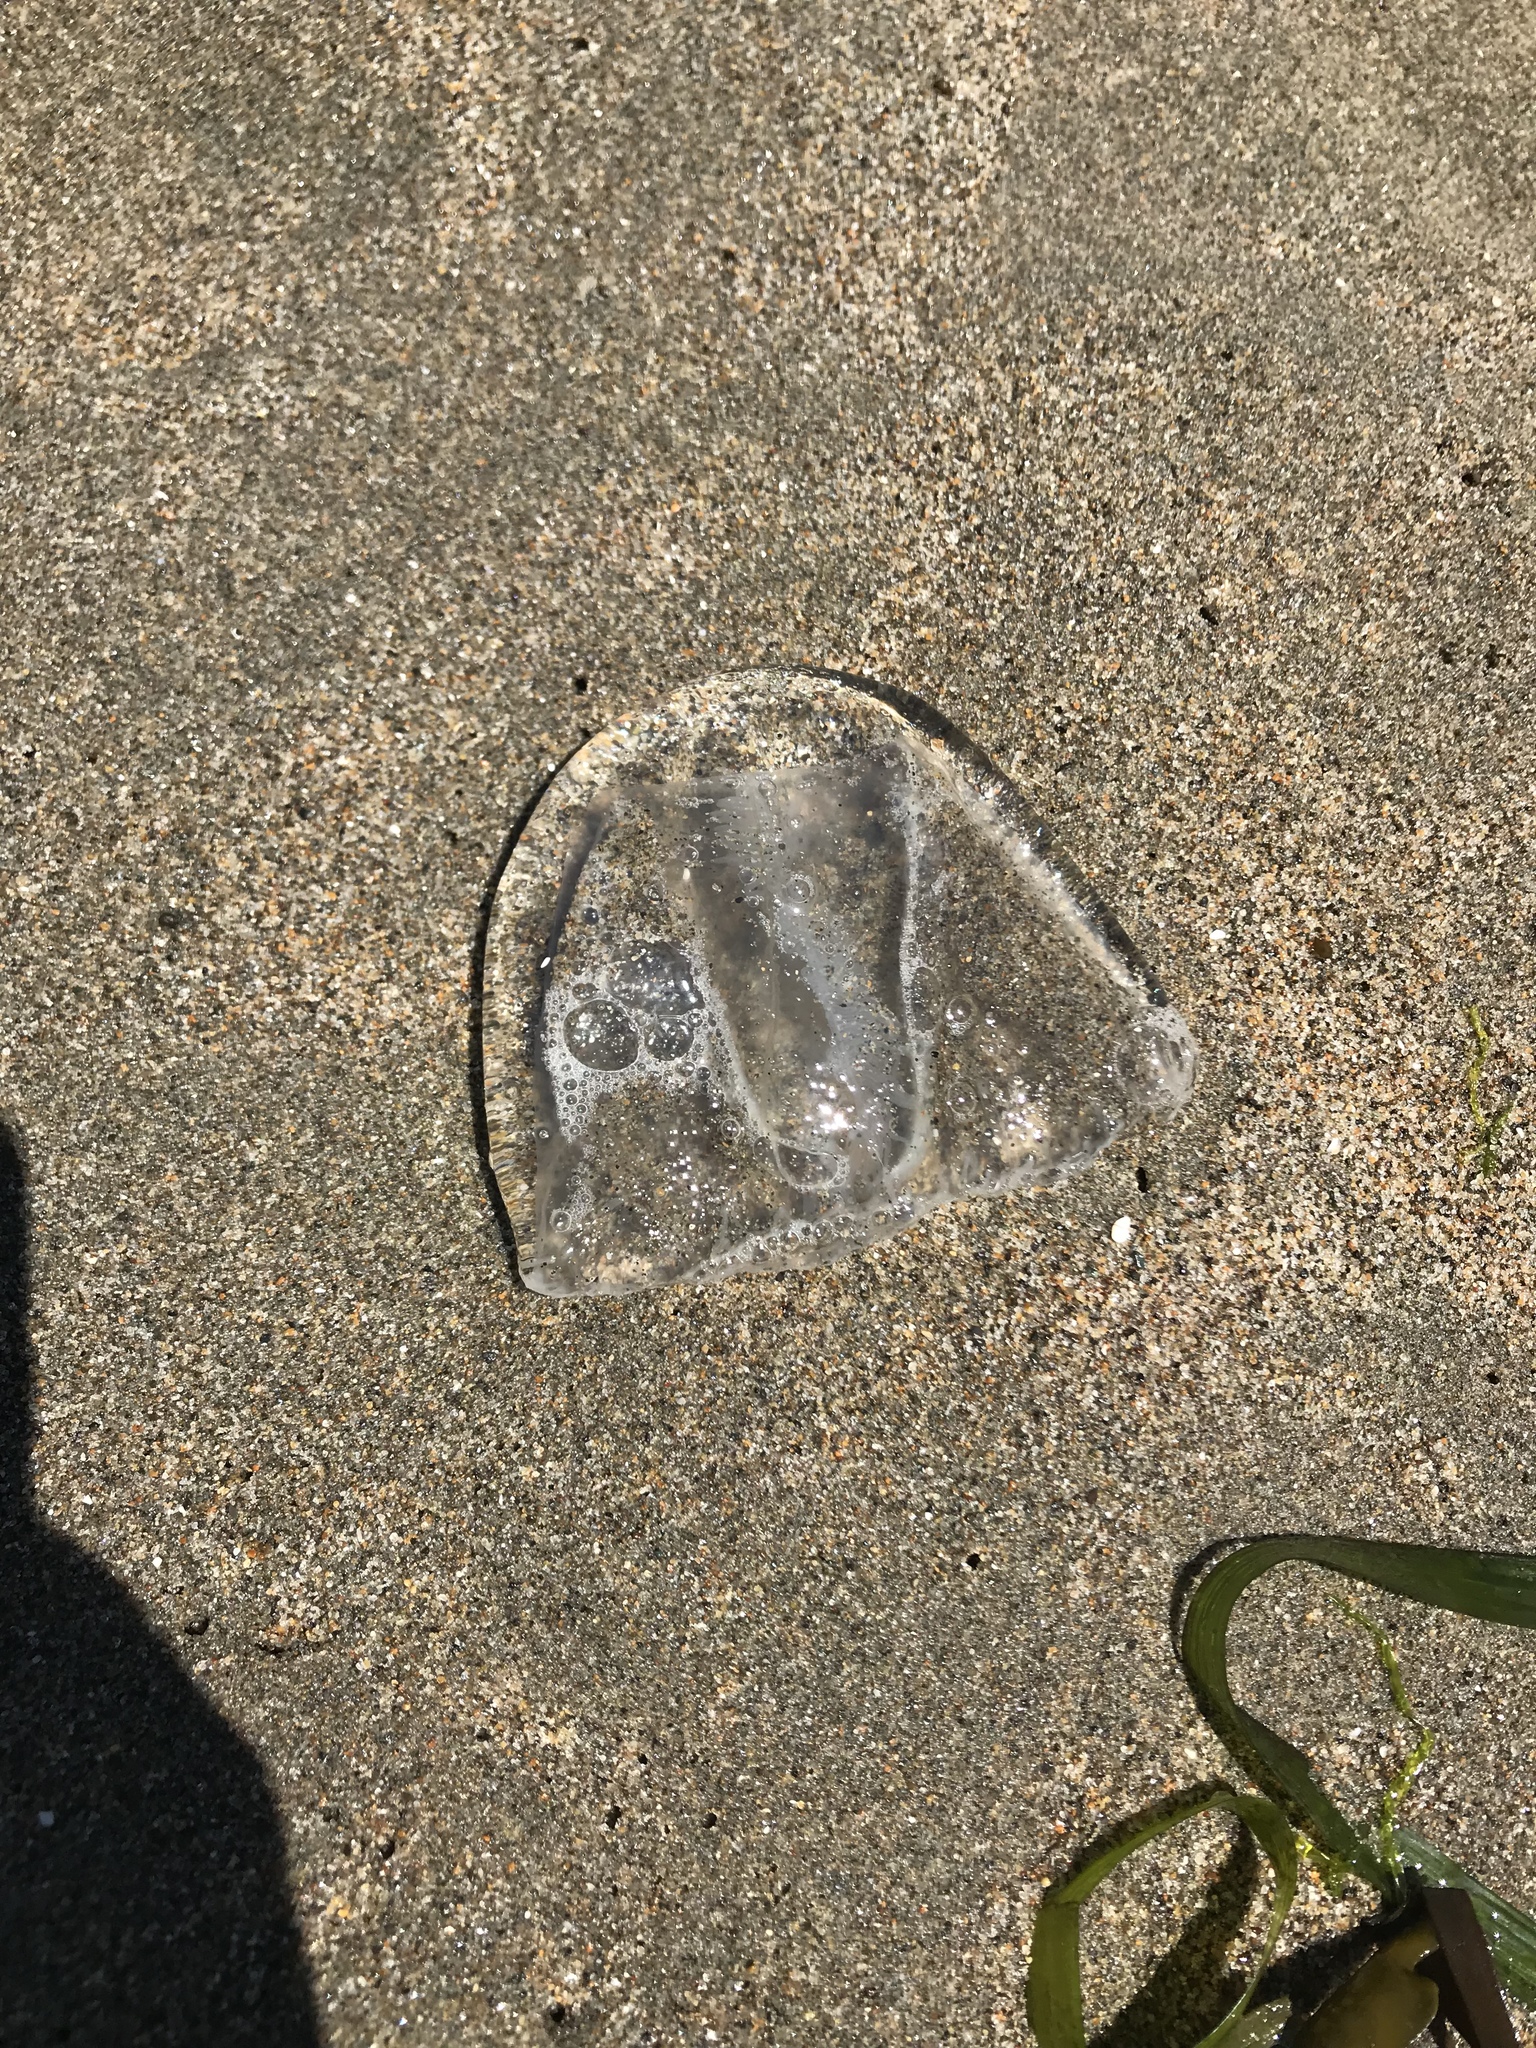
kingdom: Animalia
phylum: Cnidaria
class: Hydrozoa
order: Anthoathecata
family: Corynidae
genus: Scrippsia
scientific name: Scrippsia pacifica
